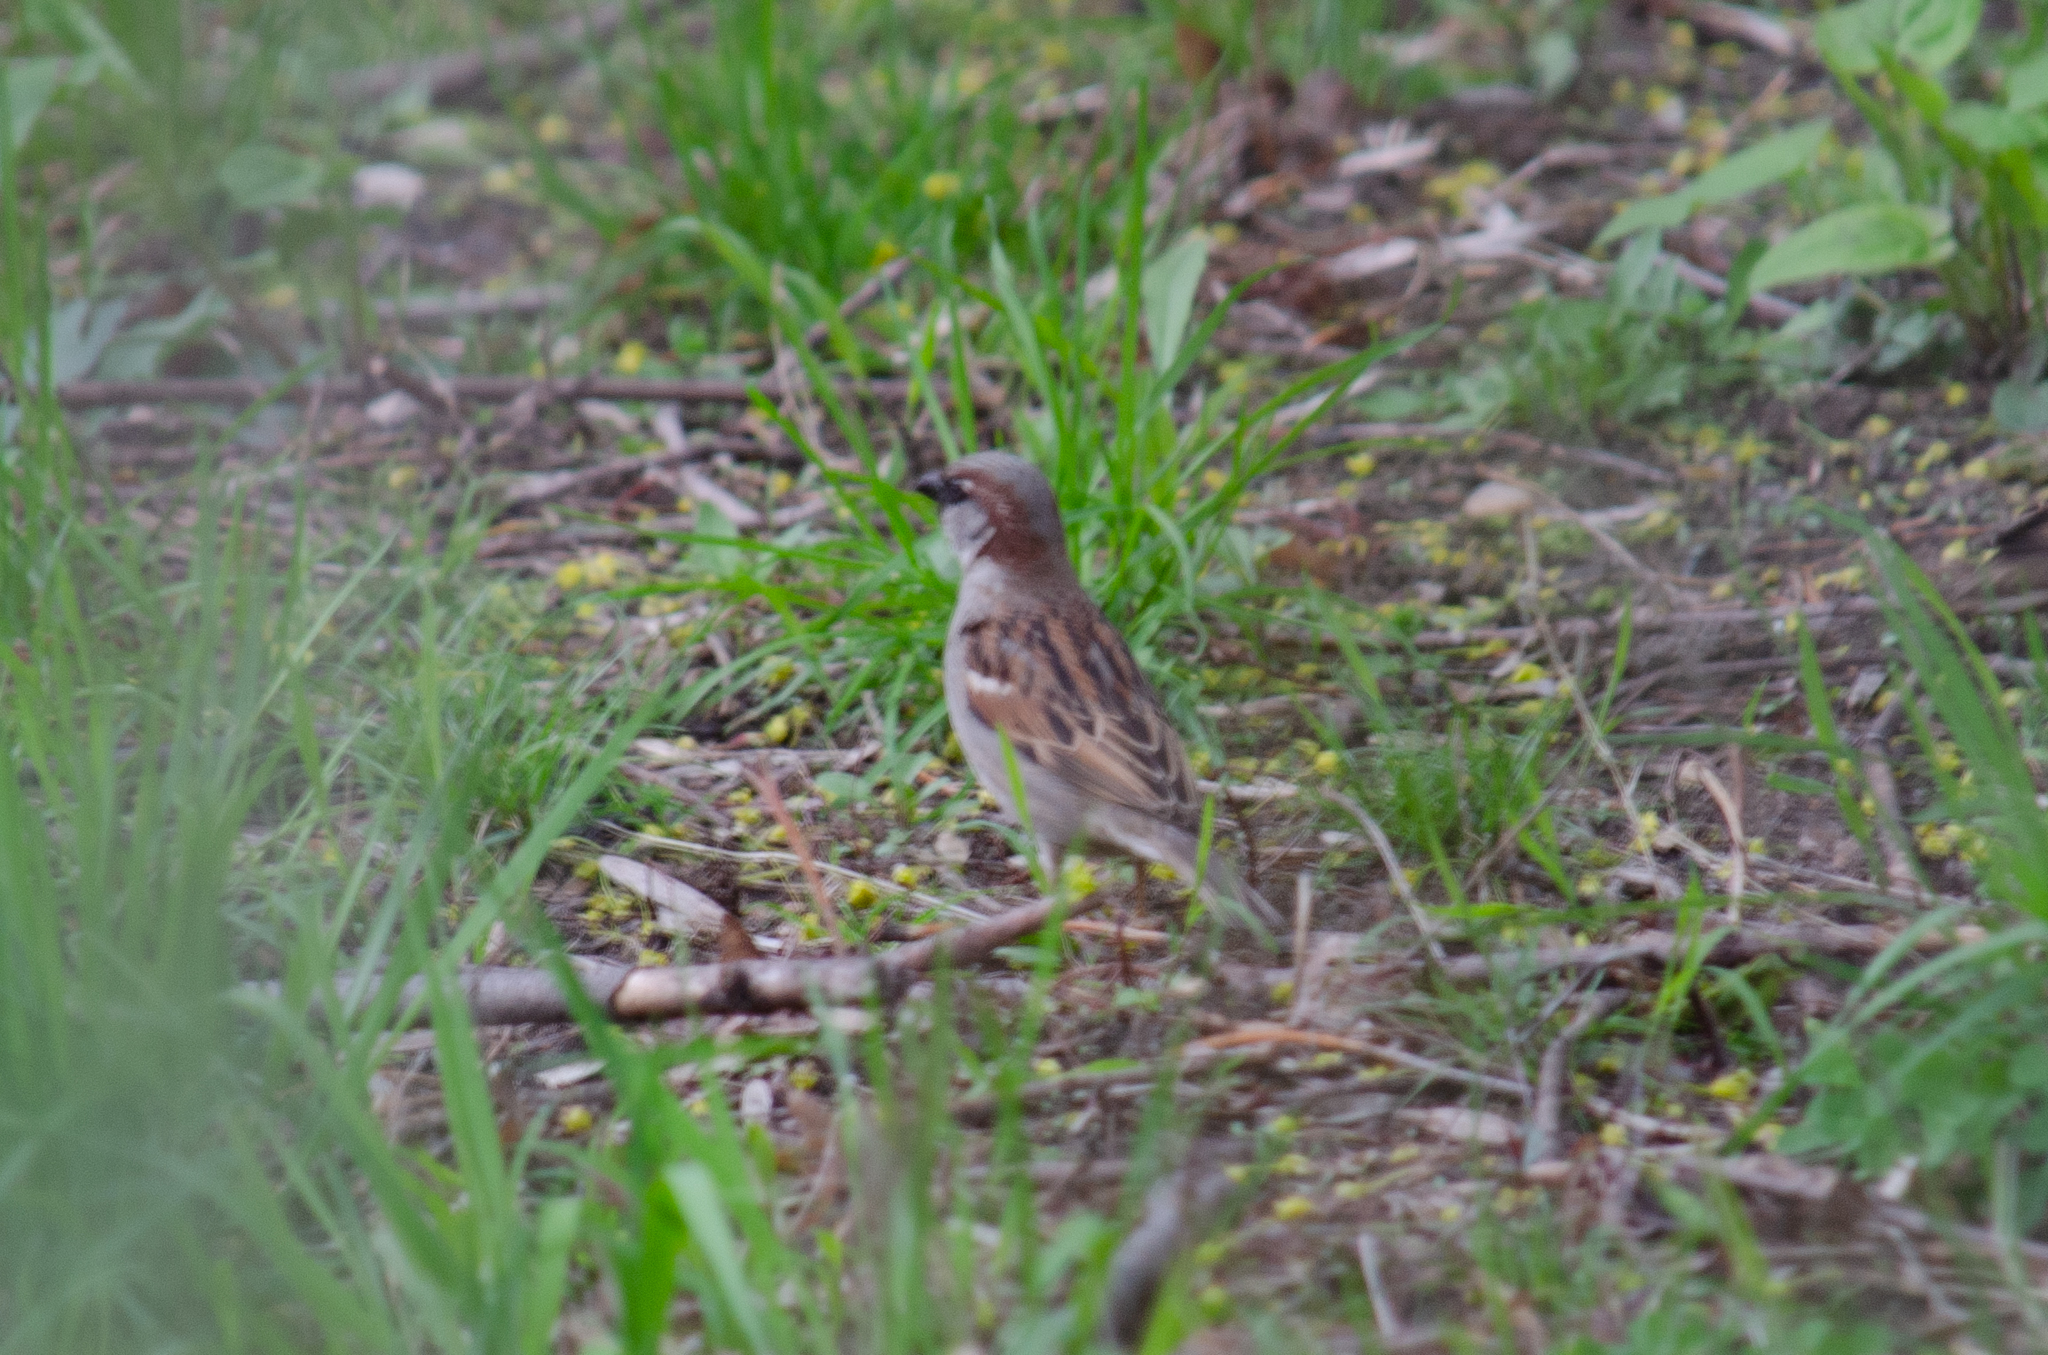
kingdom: Animalia
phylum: Chordata
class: Aves
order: Passeriformes
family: Passeridae
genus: Passer
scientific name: Passer domesticus
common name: House sparrow
